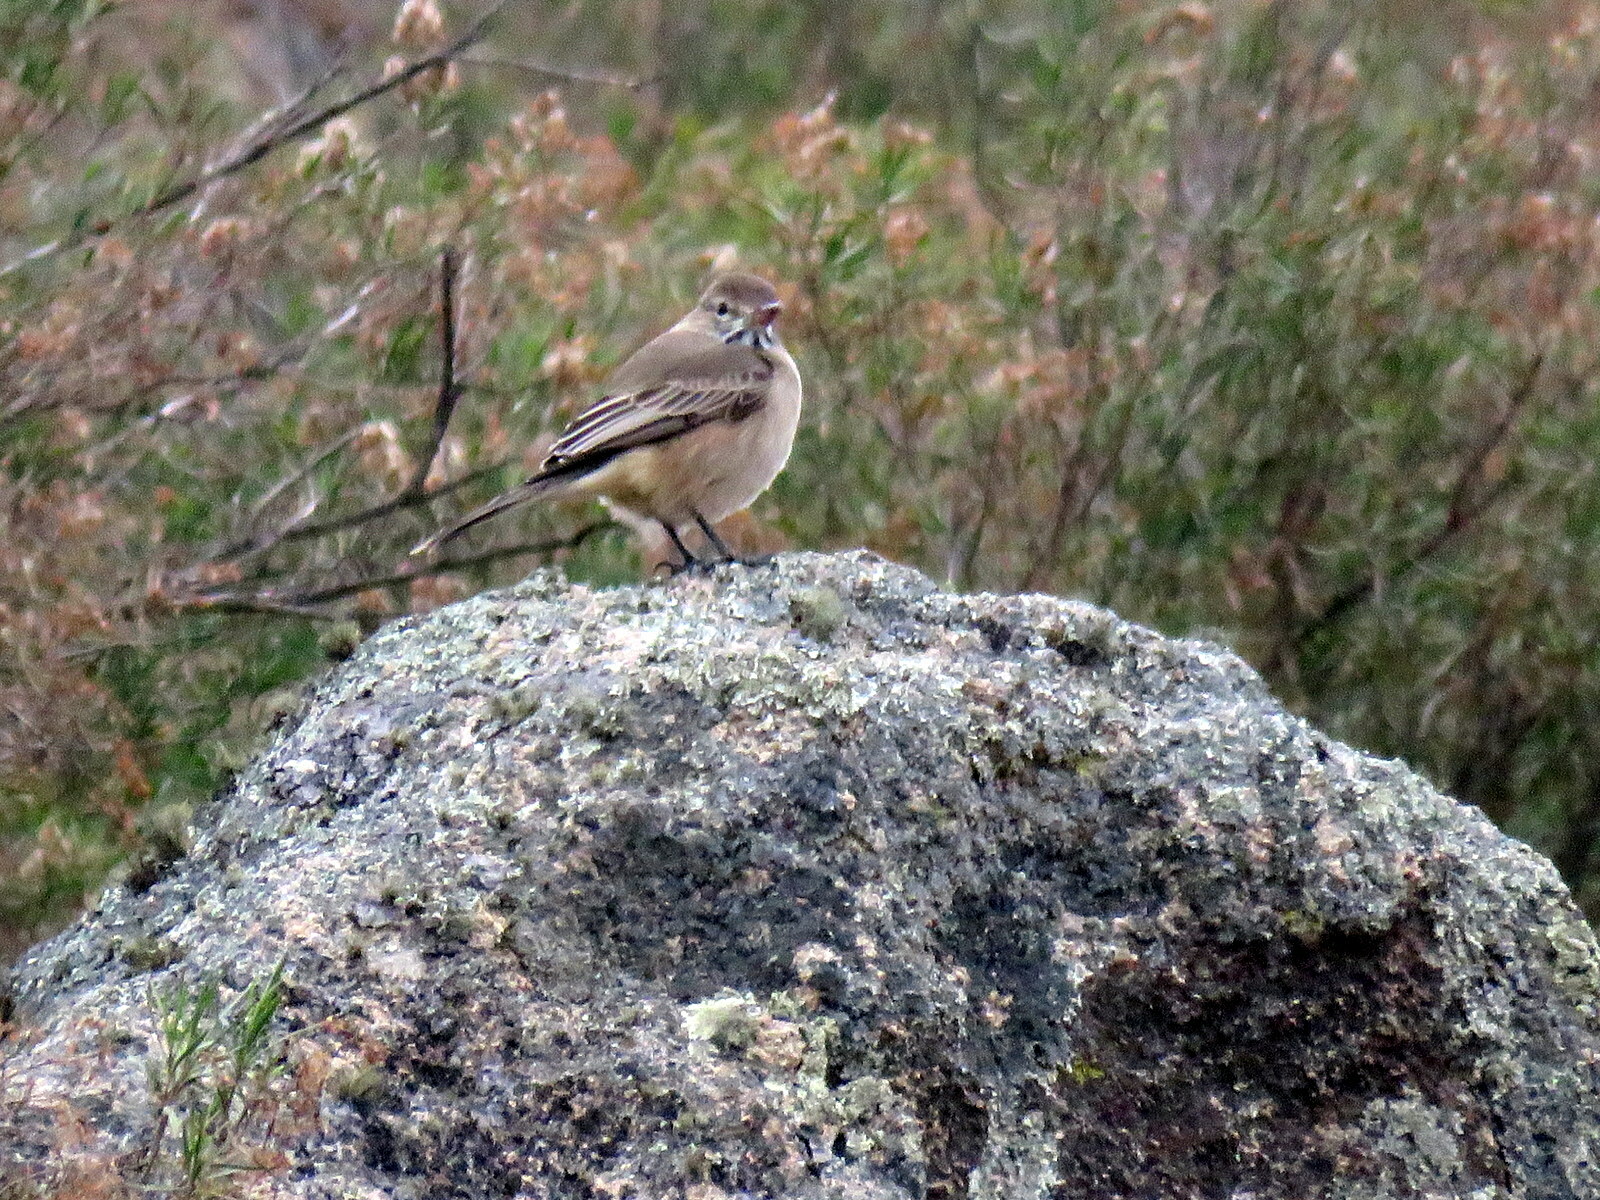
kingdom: Animalia
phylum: Chordata
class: Aves
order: Passeriformes
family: Tyrannidae
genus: Agriornis
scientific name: Agriornis micropterus
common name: Grey-bellied shrike-tyrant
